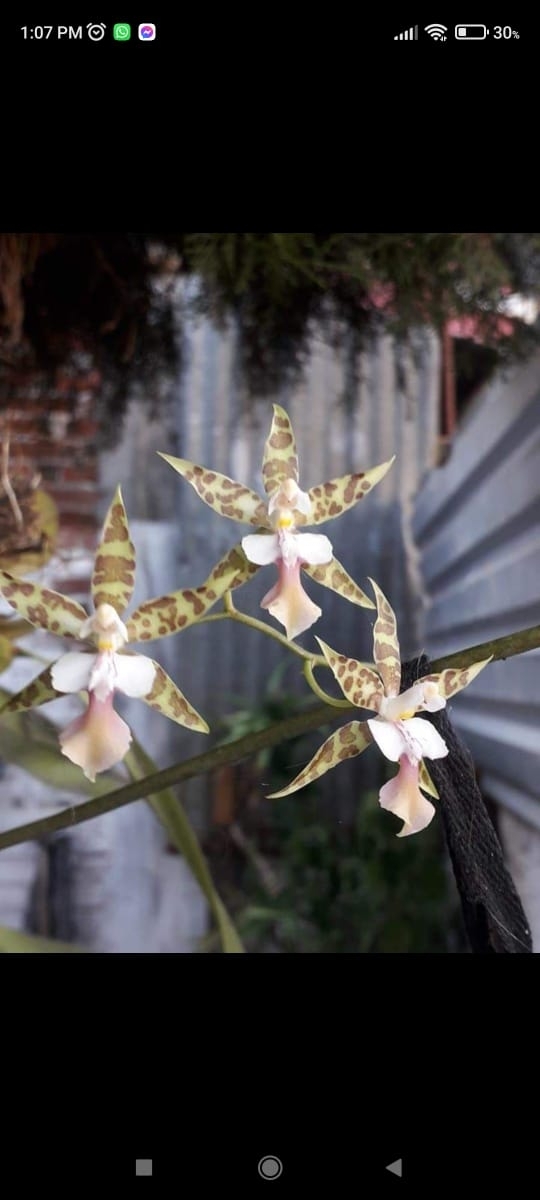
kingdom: Plantae
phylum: Tracheophyta
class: Liliopsida
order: Asparagales
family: Orchidaceae
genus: Oncidium
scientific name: Oncidium hastatum
